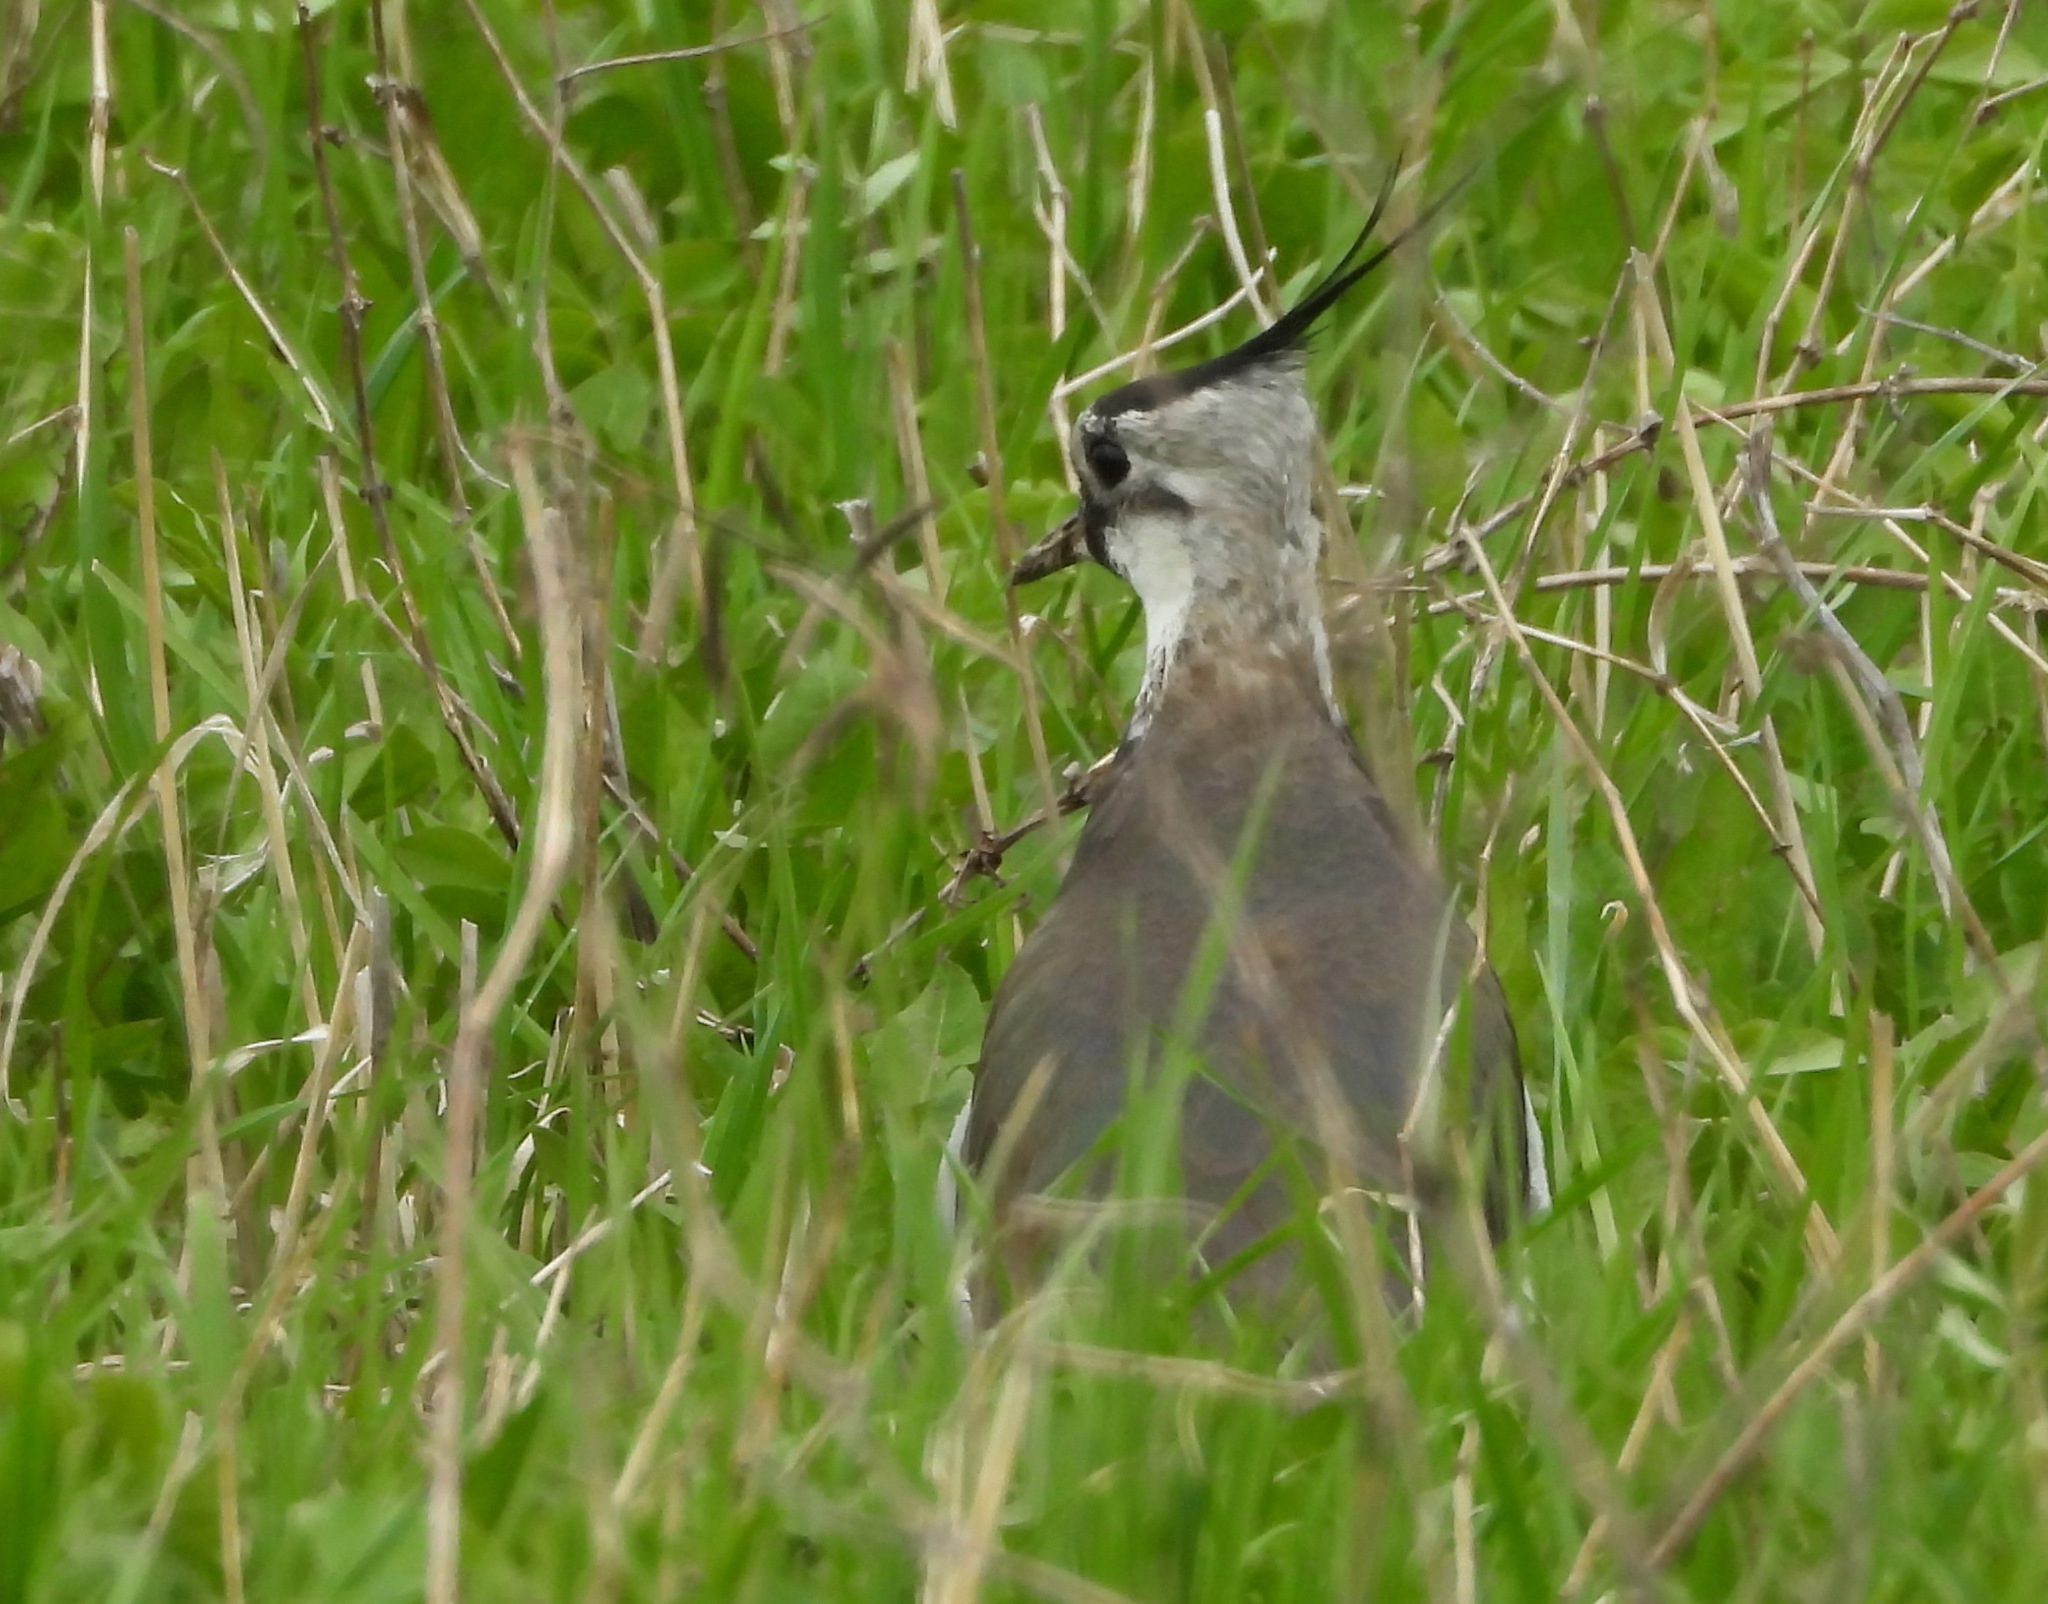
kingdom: Animalia
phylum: Chordata
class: Aves
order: Charadriiformes
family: Charadriidae
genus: Vanellus
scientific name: Vanellus vanellus
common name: Northern lapwing
